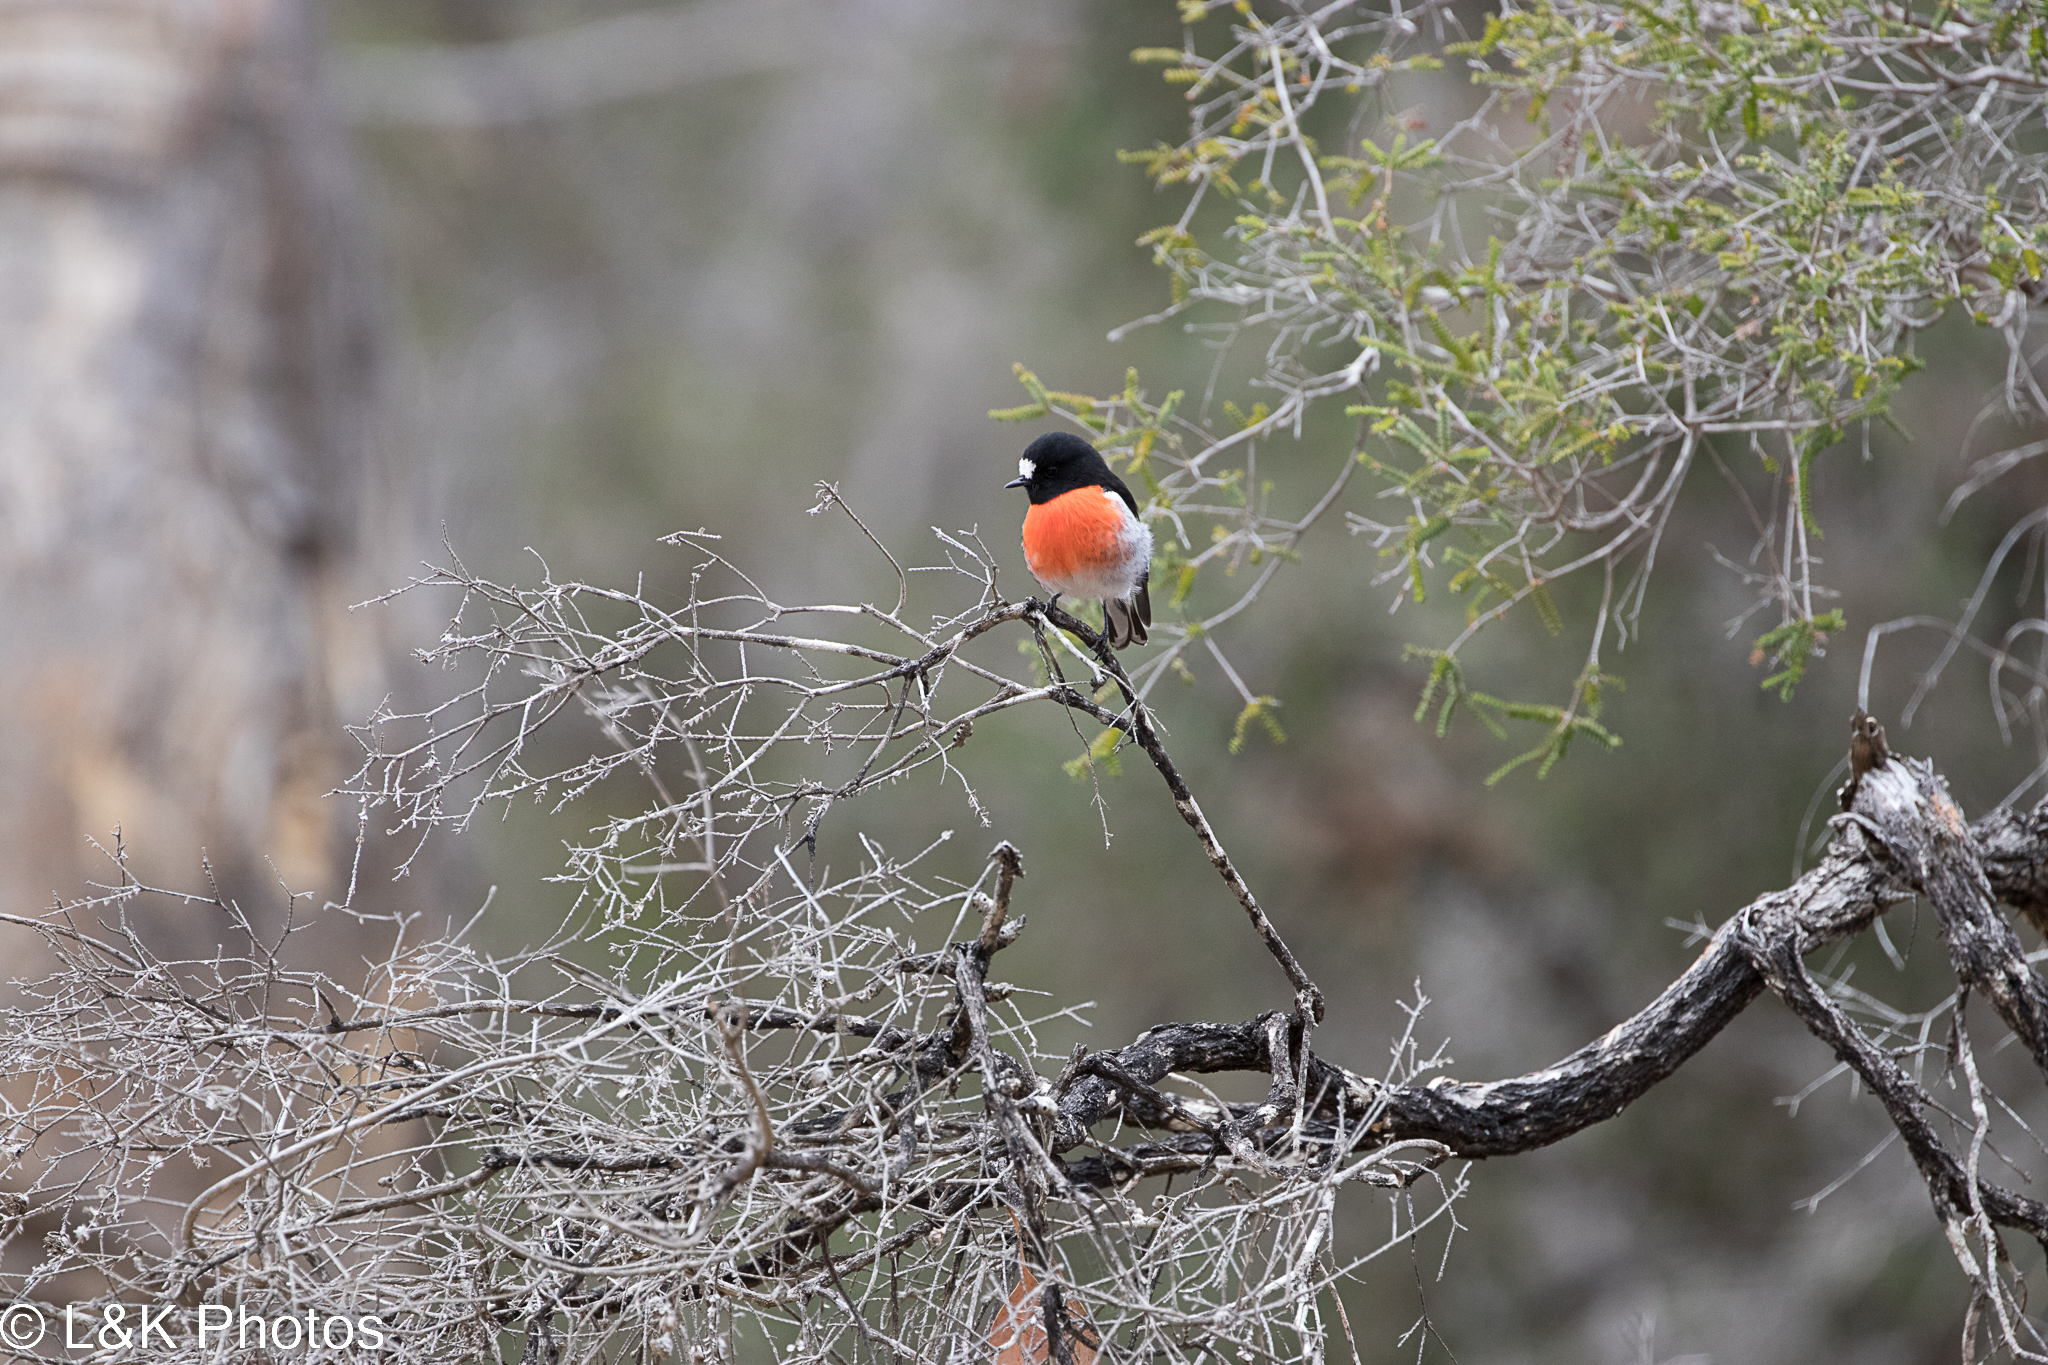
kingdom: Animalia
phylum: Chordata
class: Aves
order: Passeriformes
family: Petroicidae
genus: Petroica
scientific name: Petroica boodang
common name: Scarlet robin
